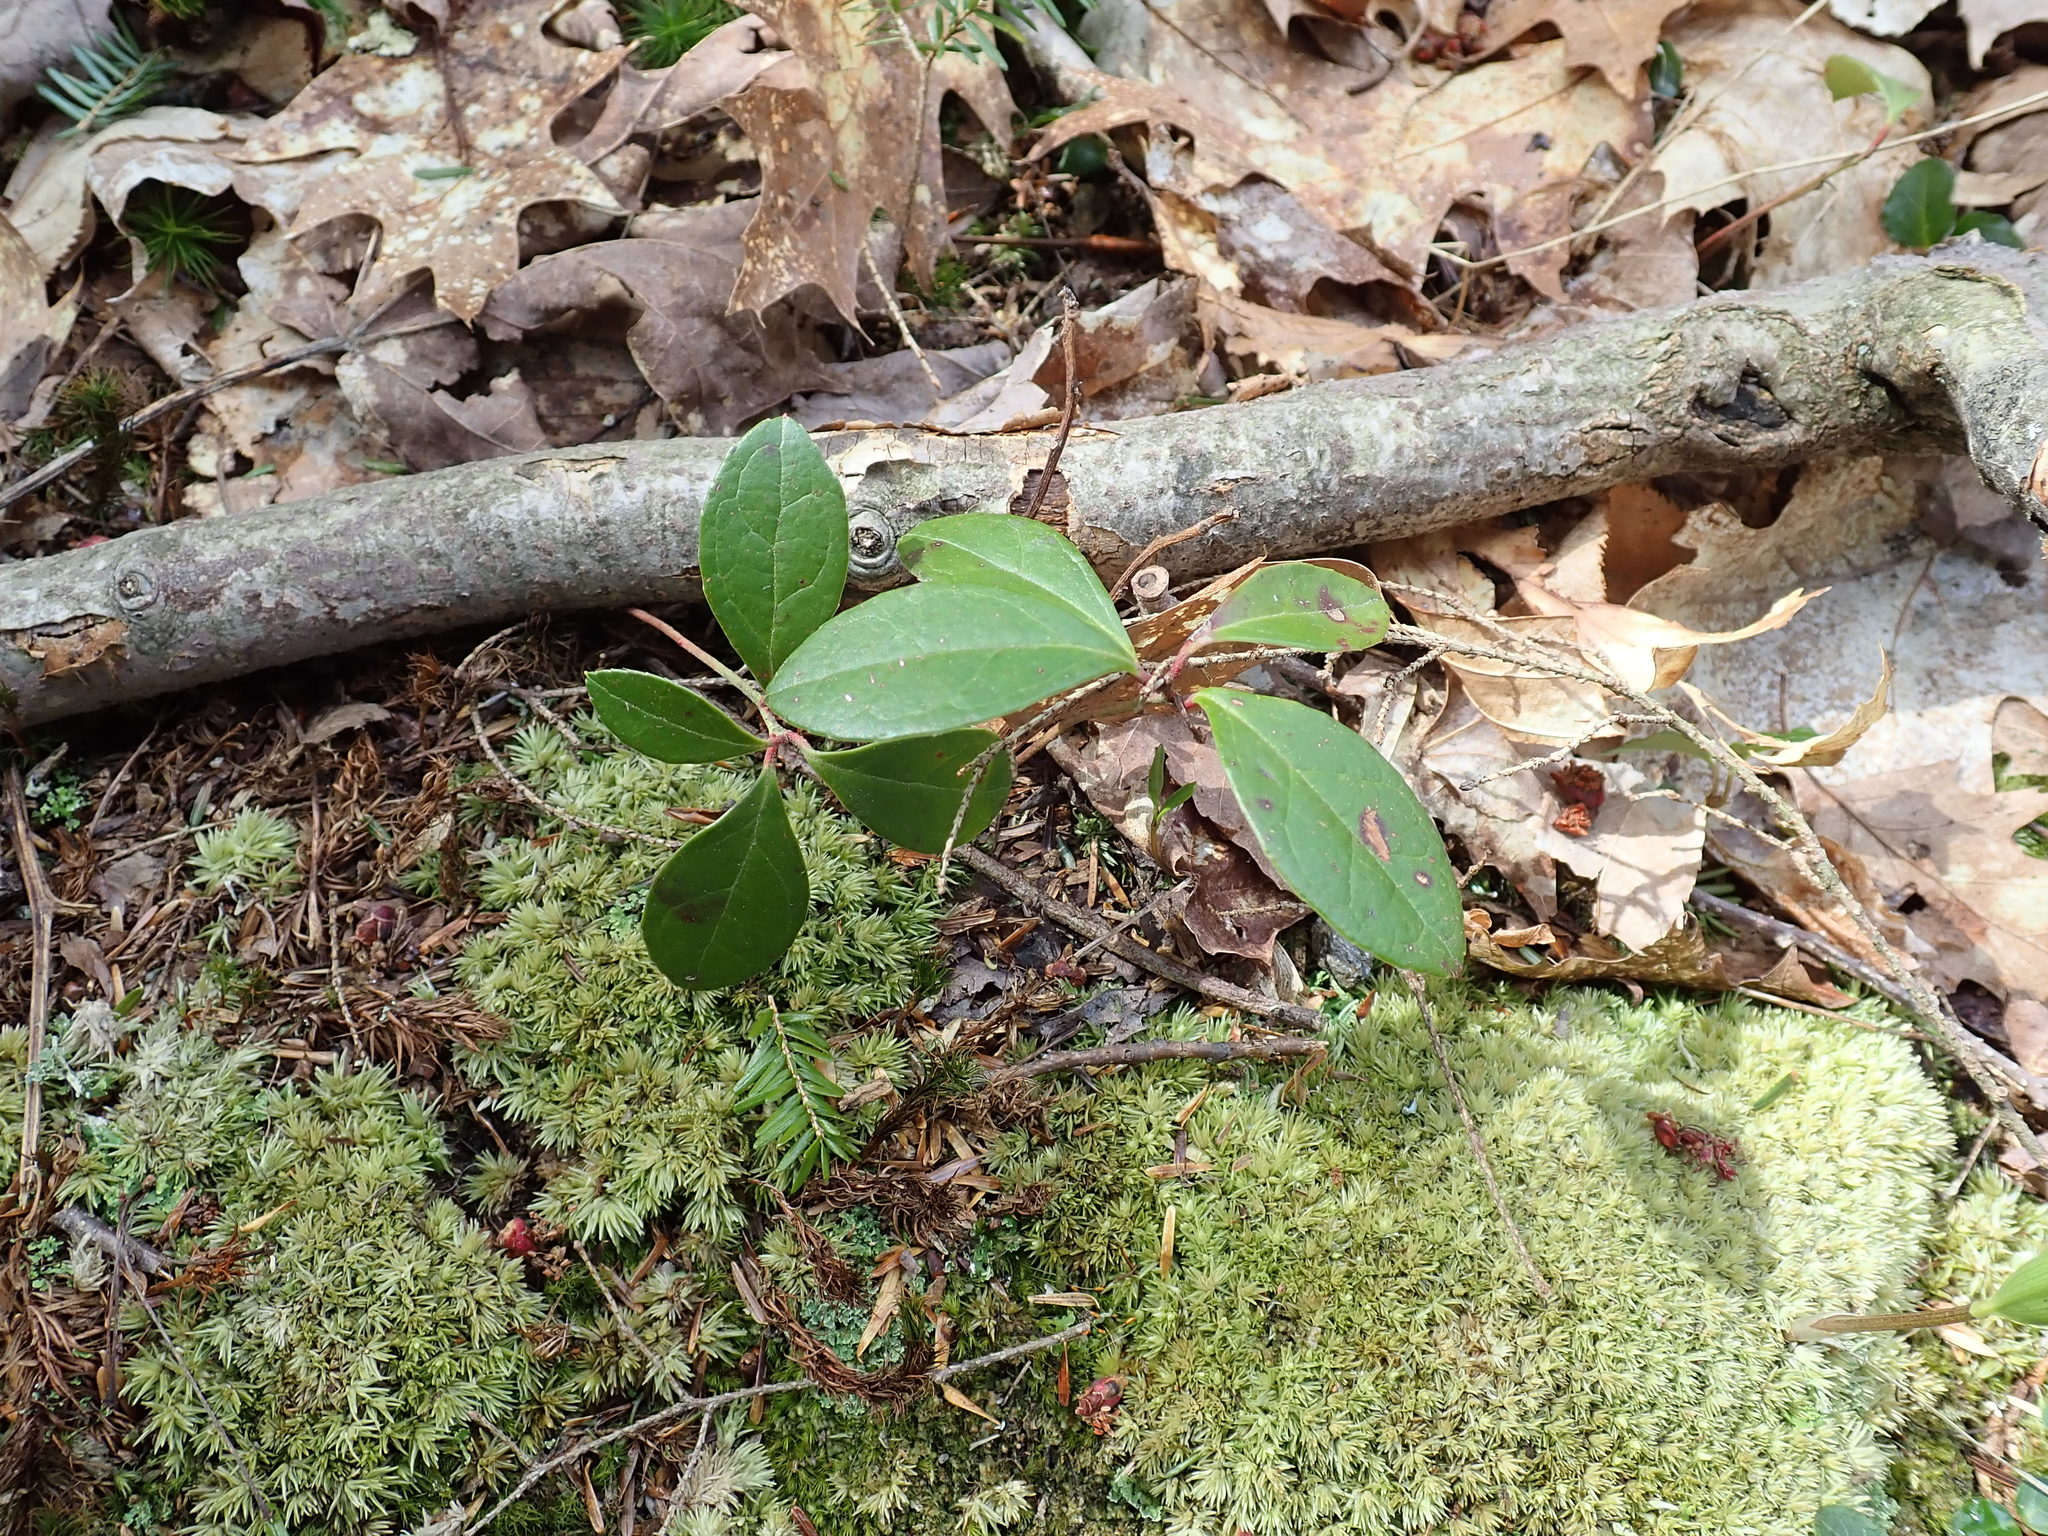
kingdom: Plantae
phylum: Tracheophyta
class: Magnoliopsida
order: Ericales
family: Ericaceae
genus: Gaultheria
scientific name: Gaultheria procumbens
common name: Checkerberry
